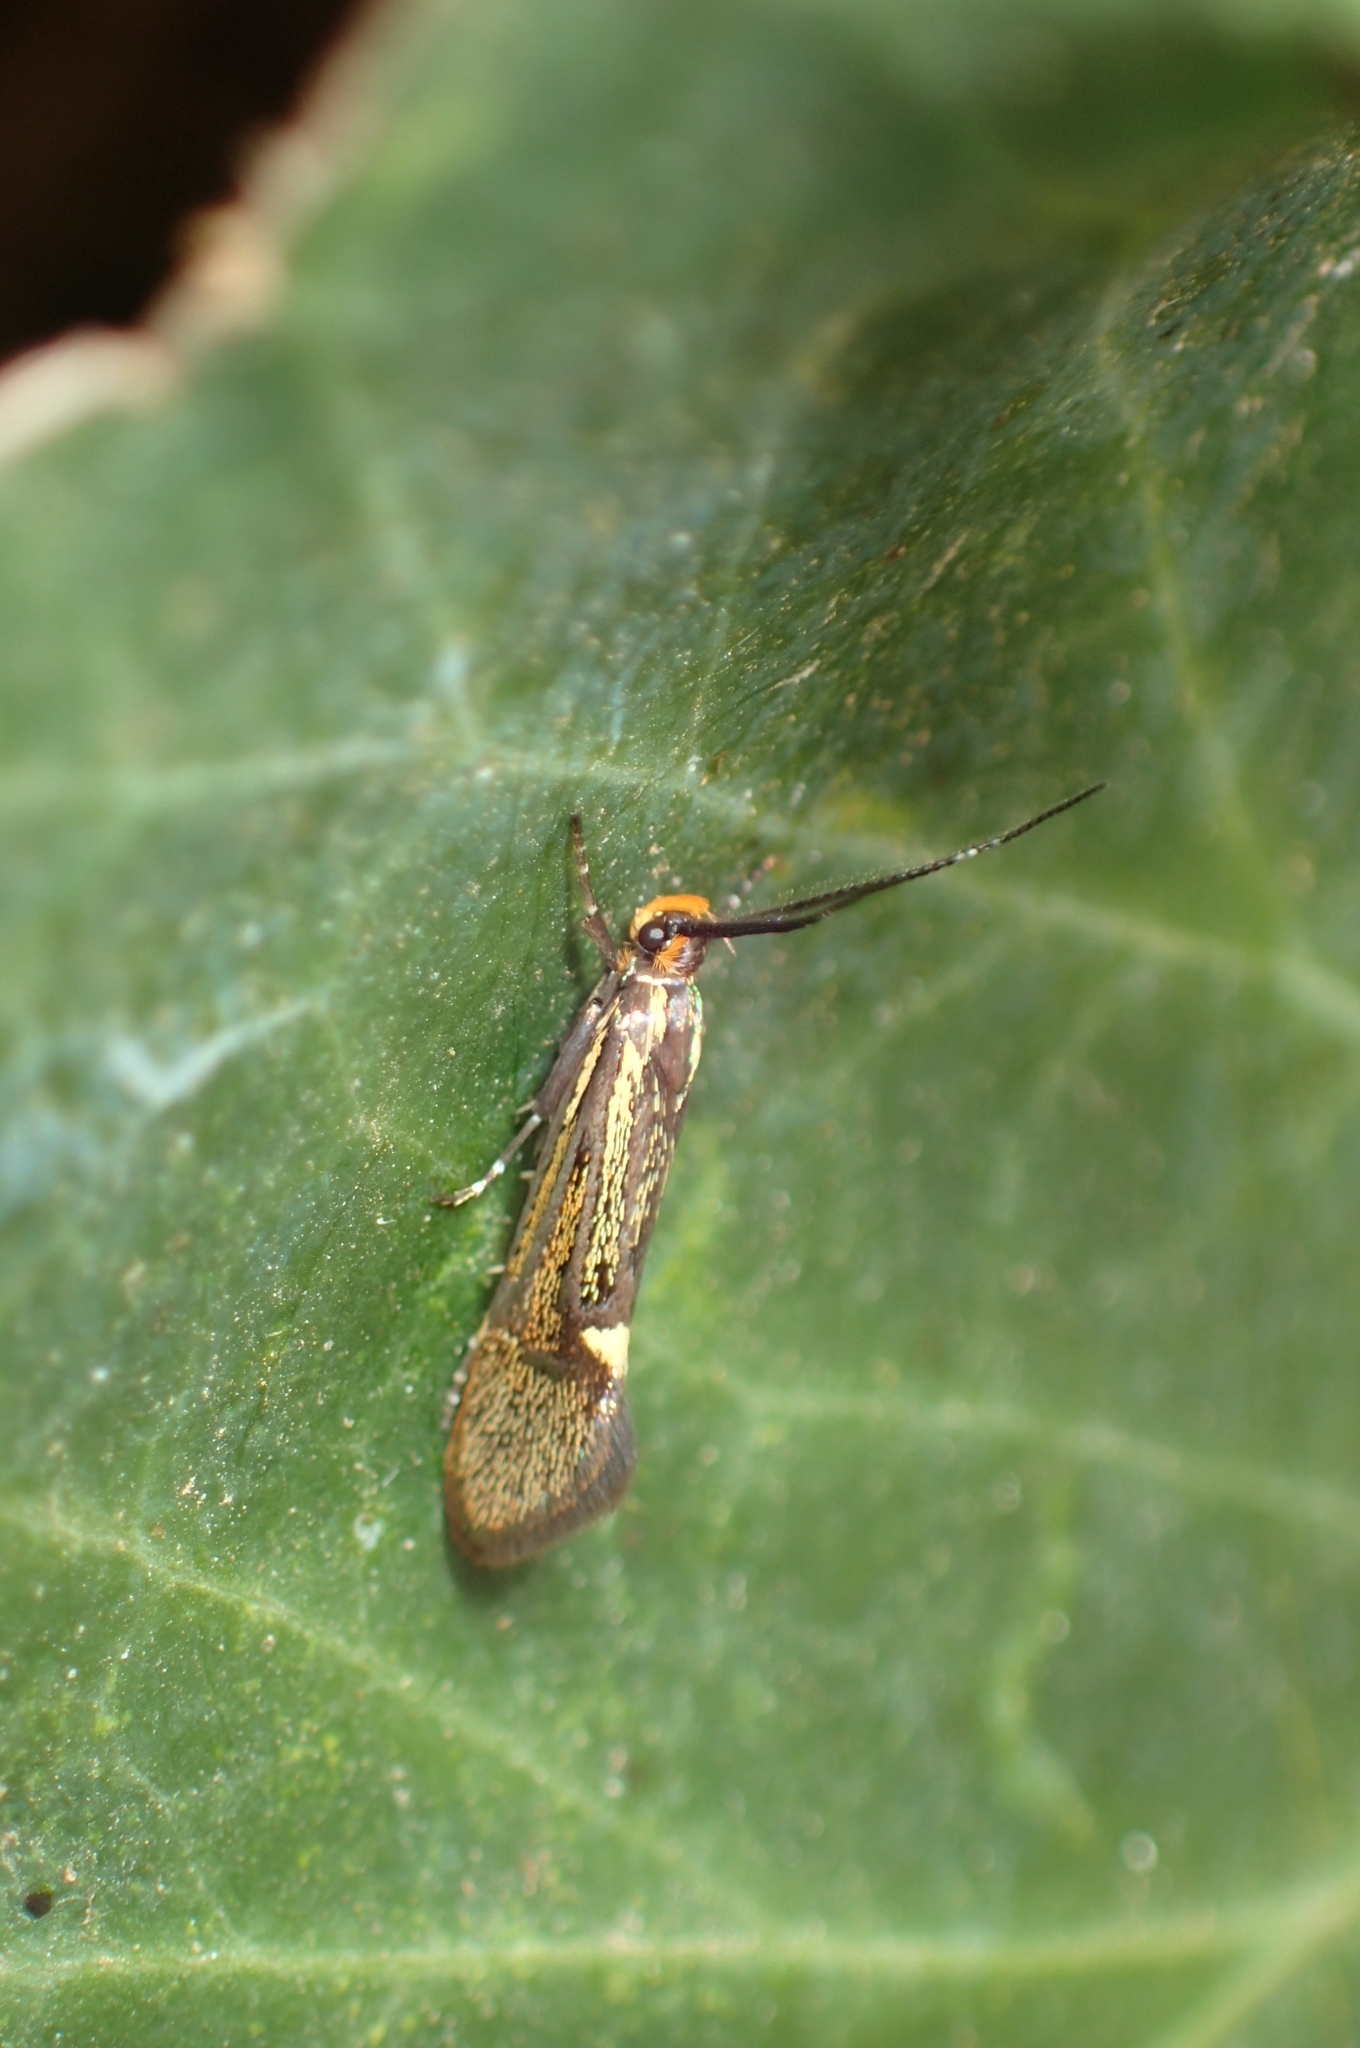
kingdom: Animalia
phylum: Arthropoda
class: Insecta
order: Lepidoptera
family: Oecophoridae
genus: Dafa
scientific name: Dafa Esperia sulphurella
